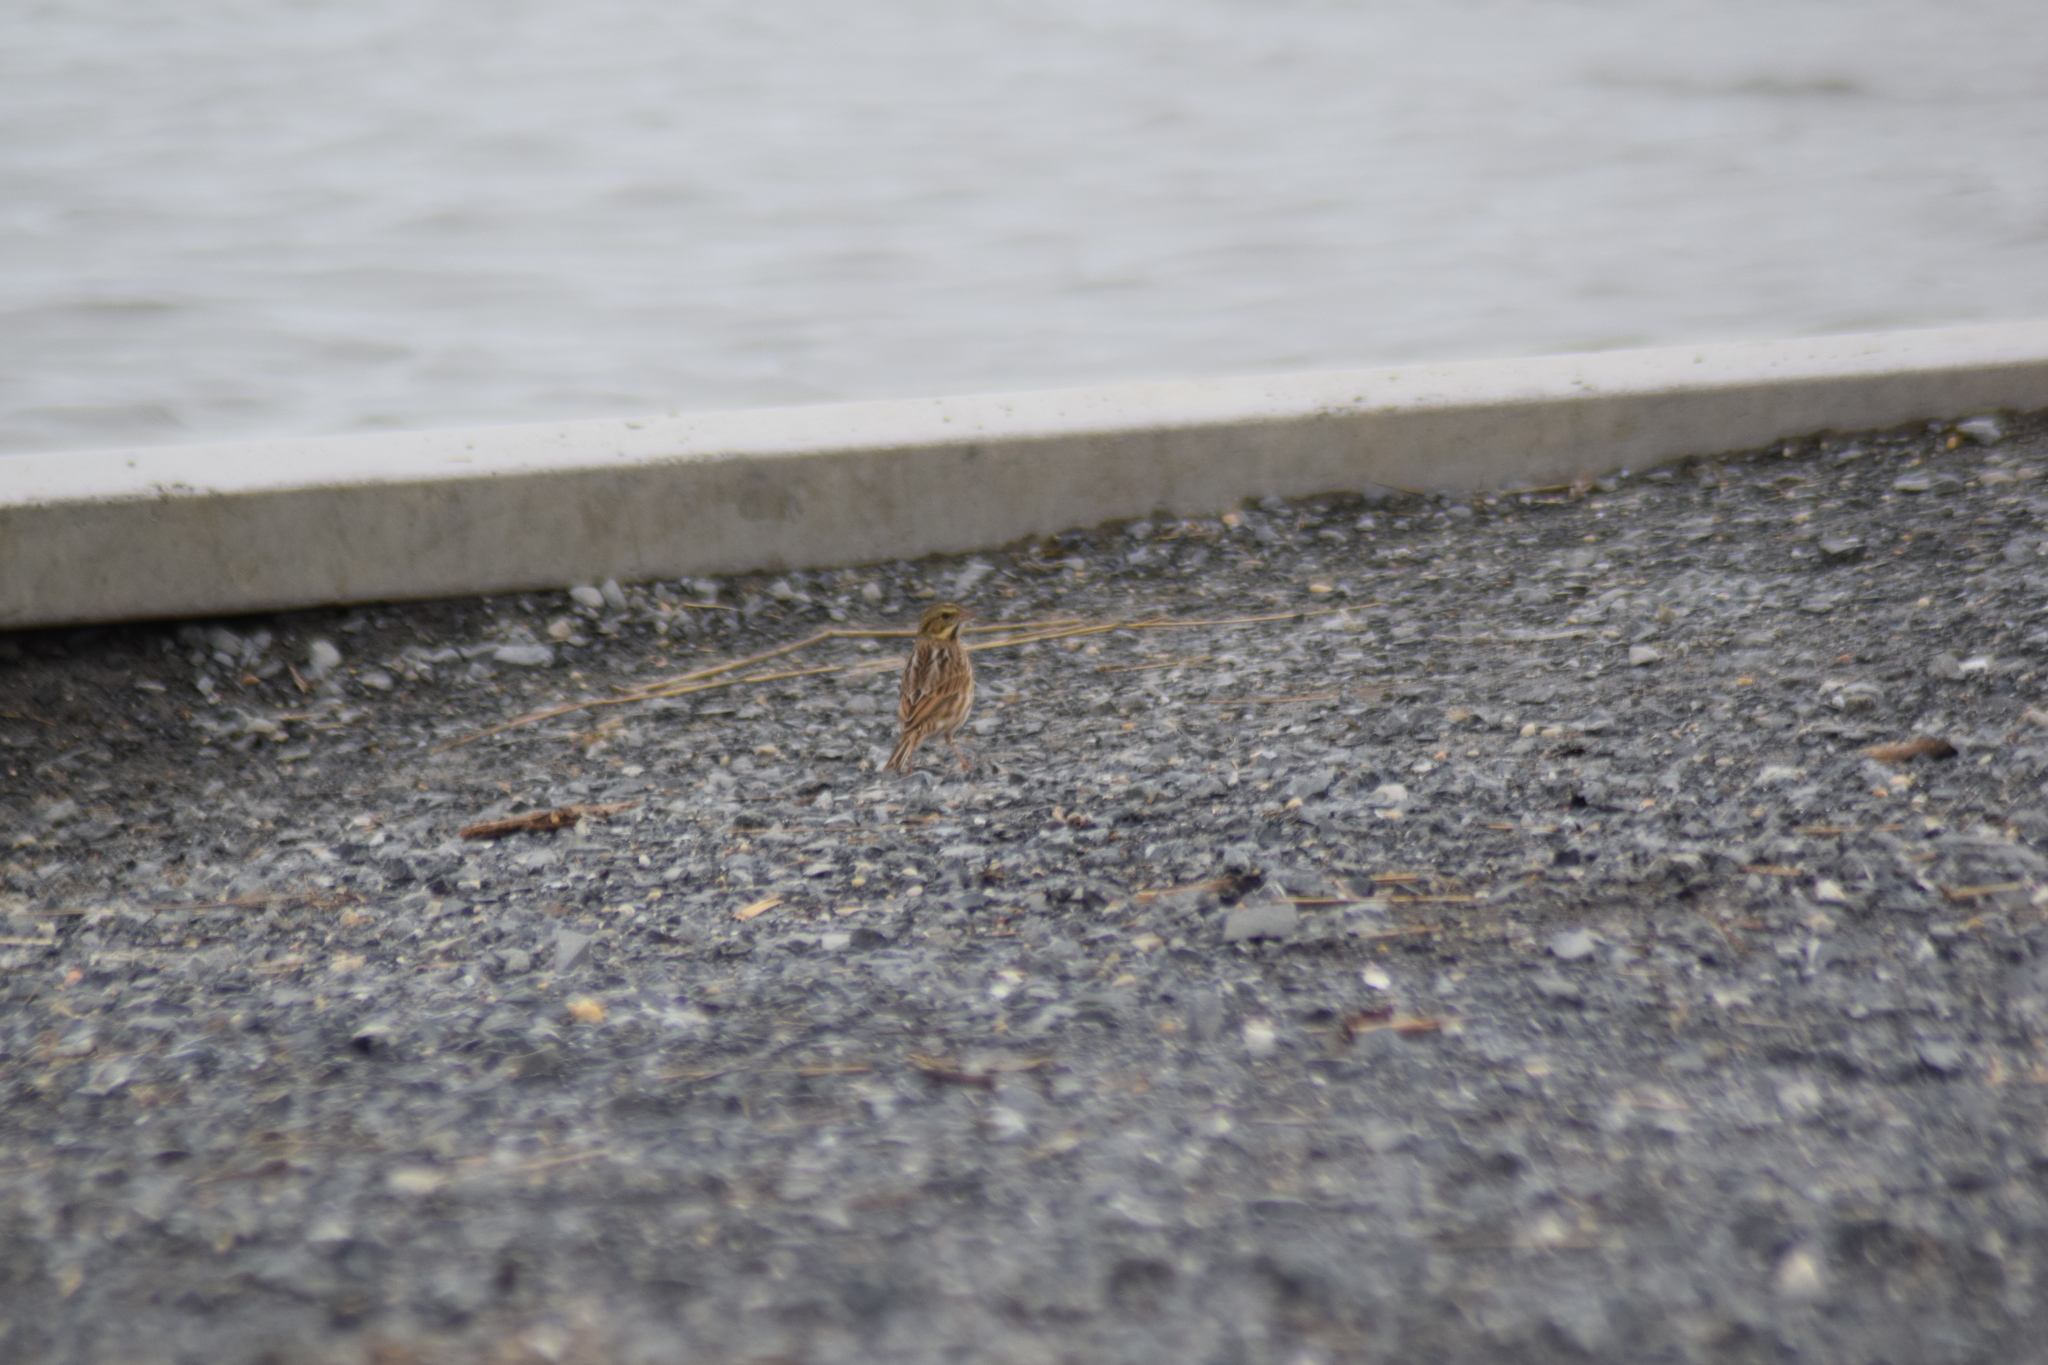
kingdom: Animalia
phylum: Chordata
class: Aves
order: Passeriformes
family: Passerellidae
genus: Passerculus
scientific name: Passerculus sandwichensis
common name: Savannah sparrow
